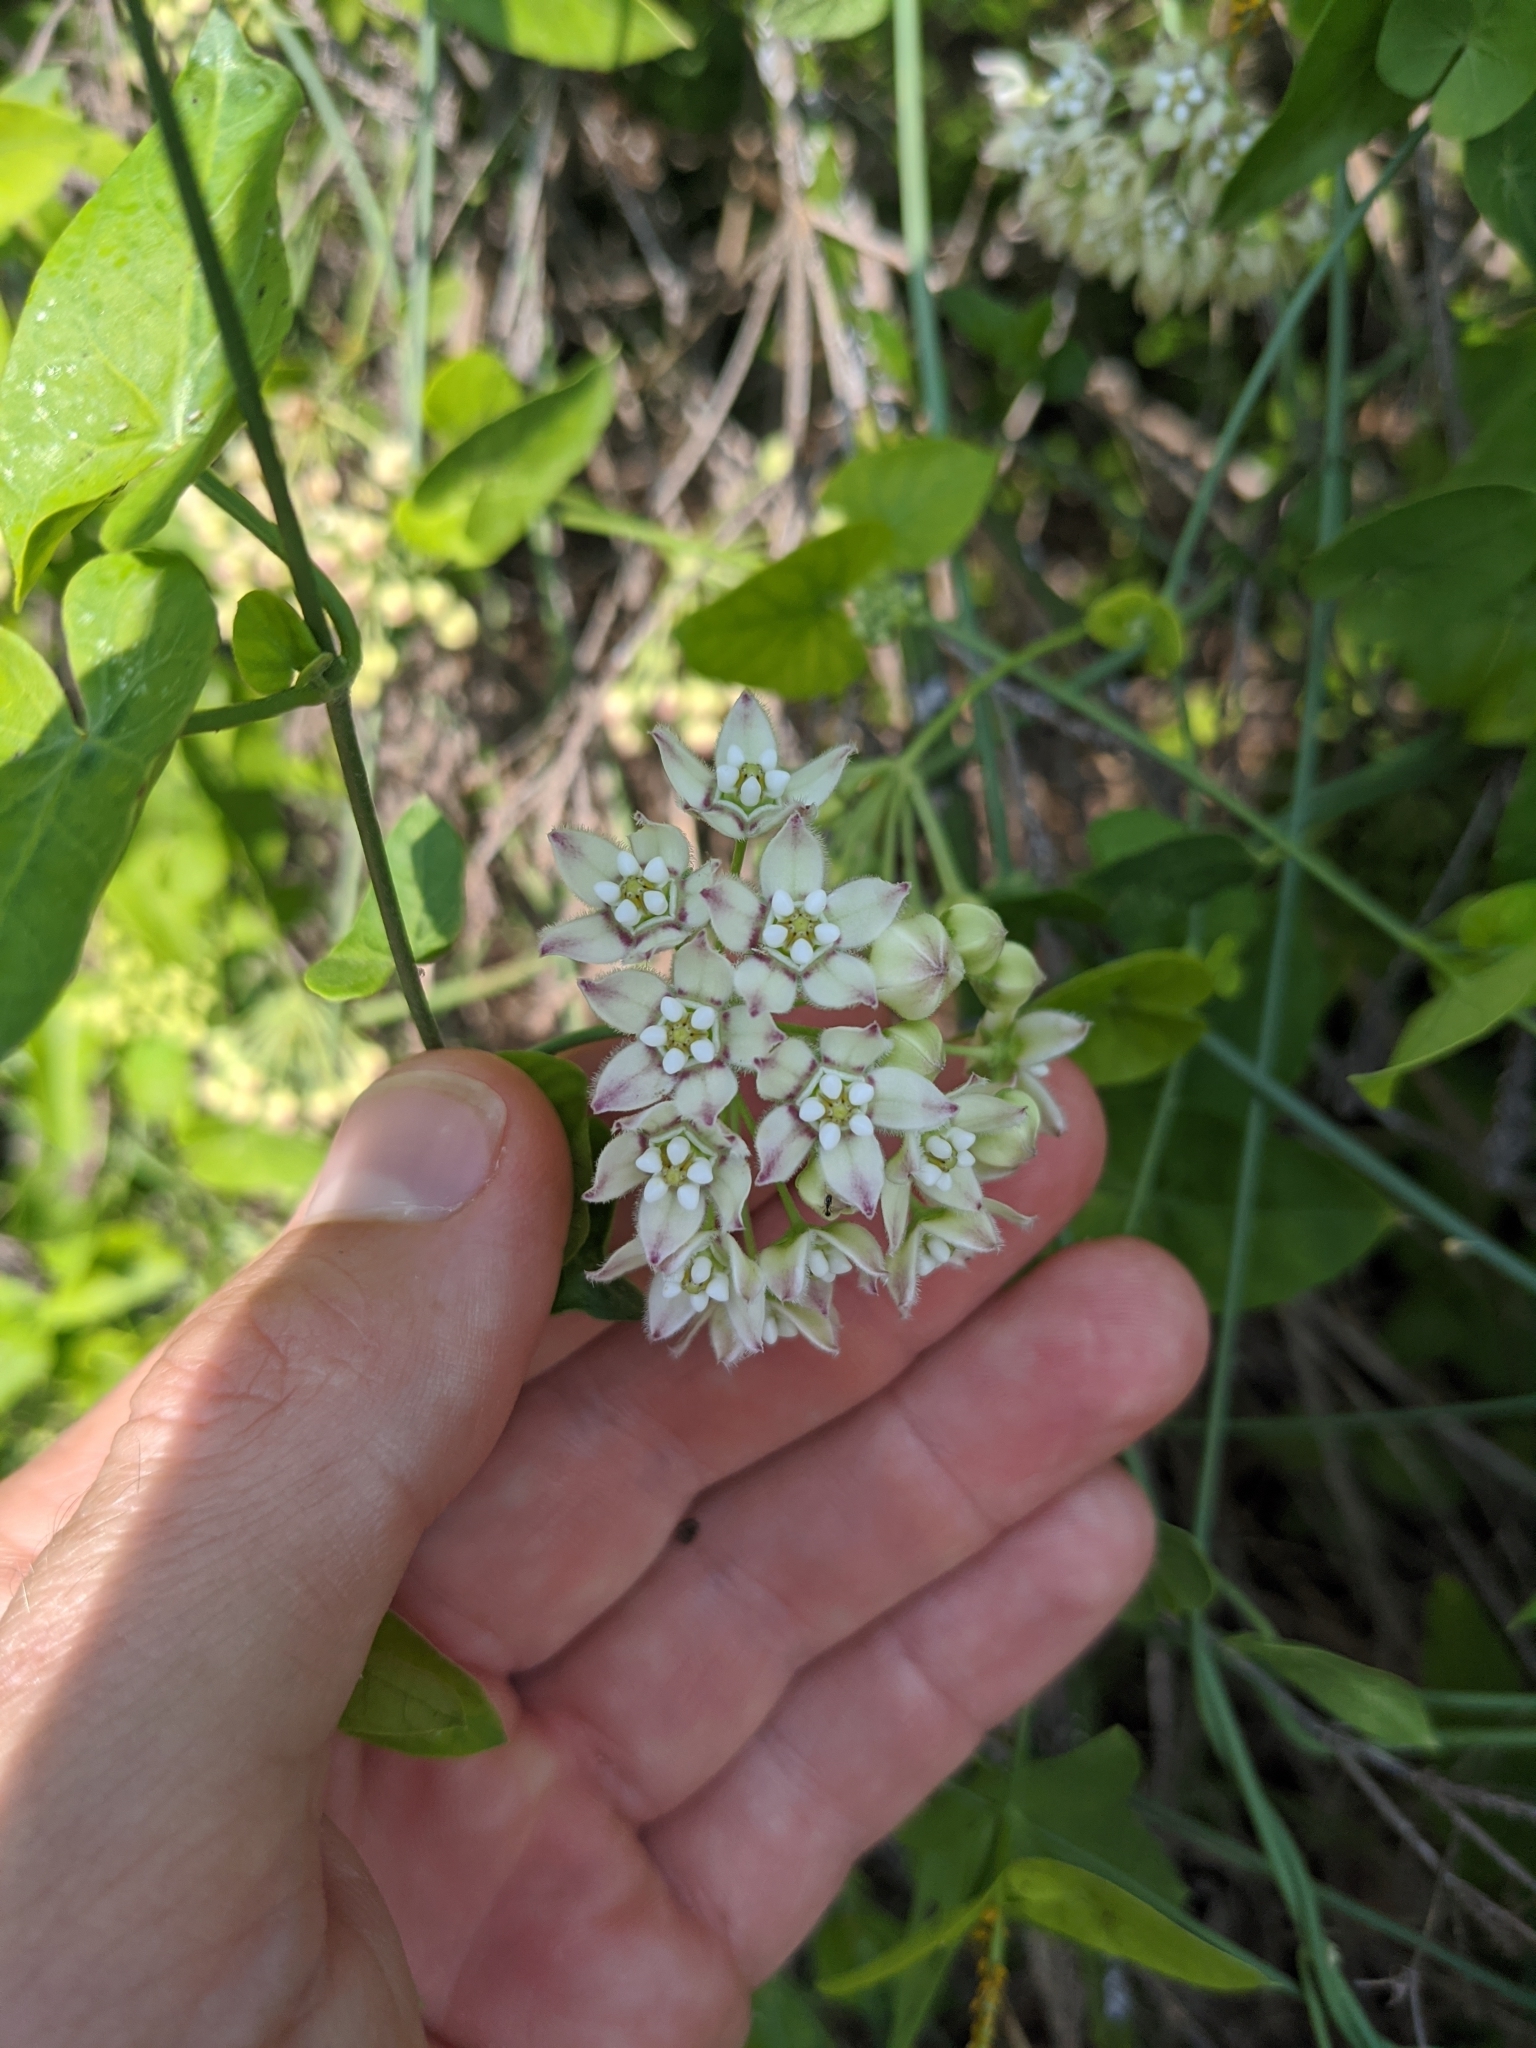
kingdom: Plantae
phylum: Tracheophyta
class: Magnoliopsida
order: Gentianales
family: Apocynaceae
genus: Funastrum
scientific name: Funastrum cynanchoides
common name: Climbing-milkweed
